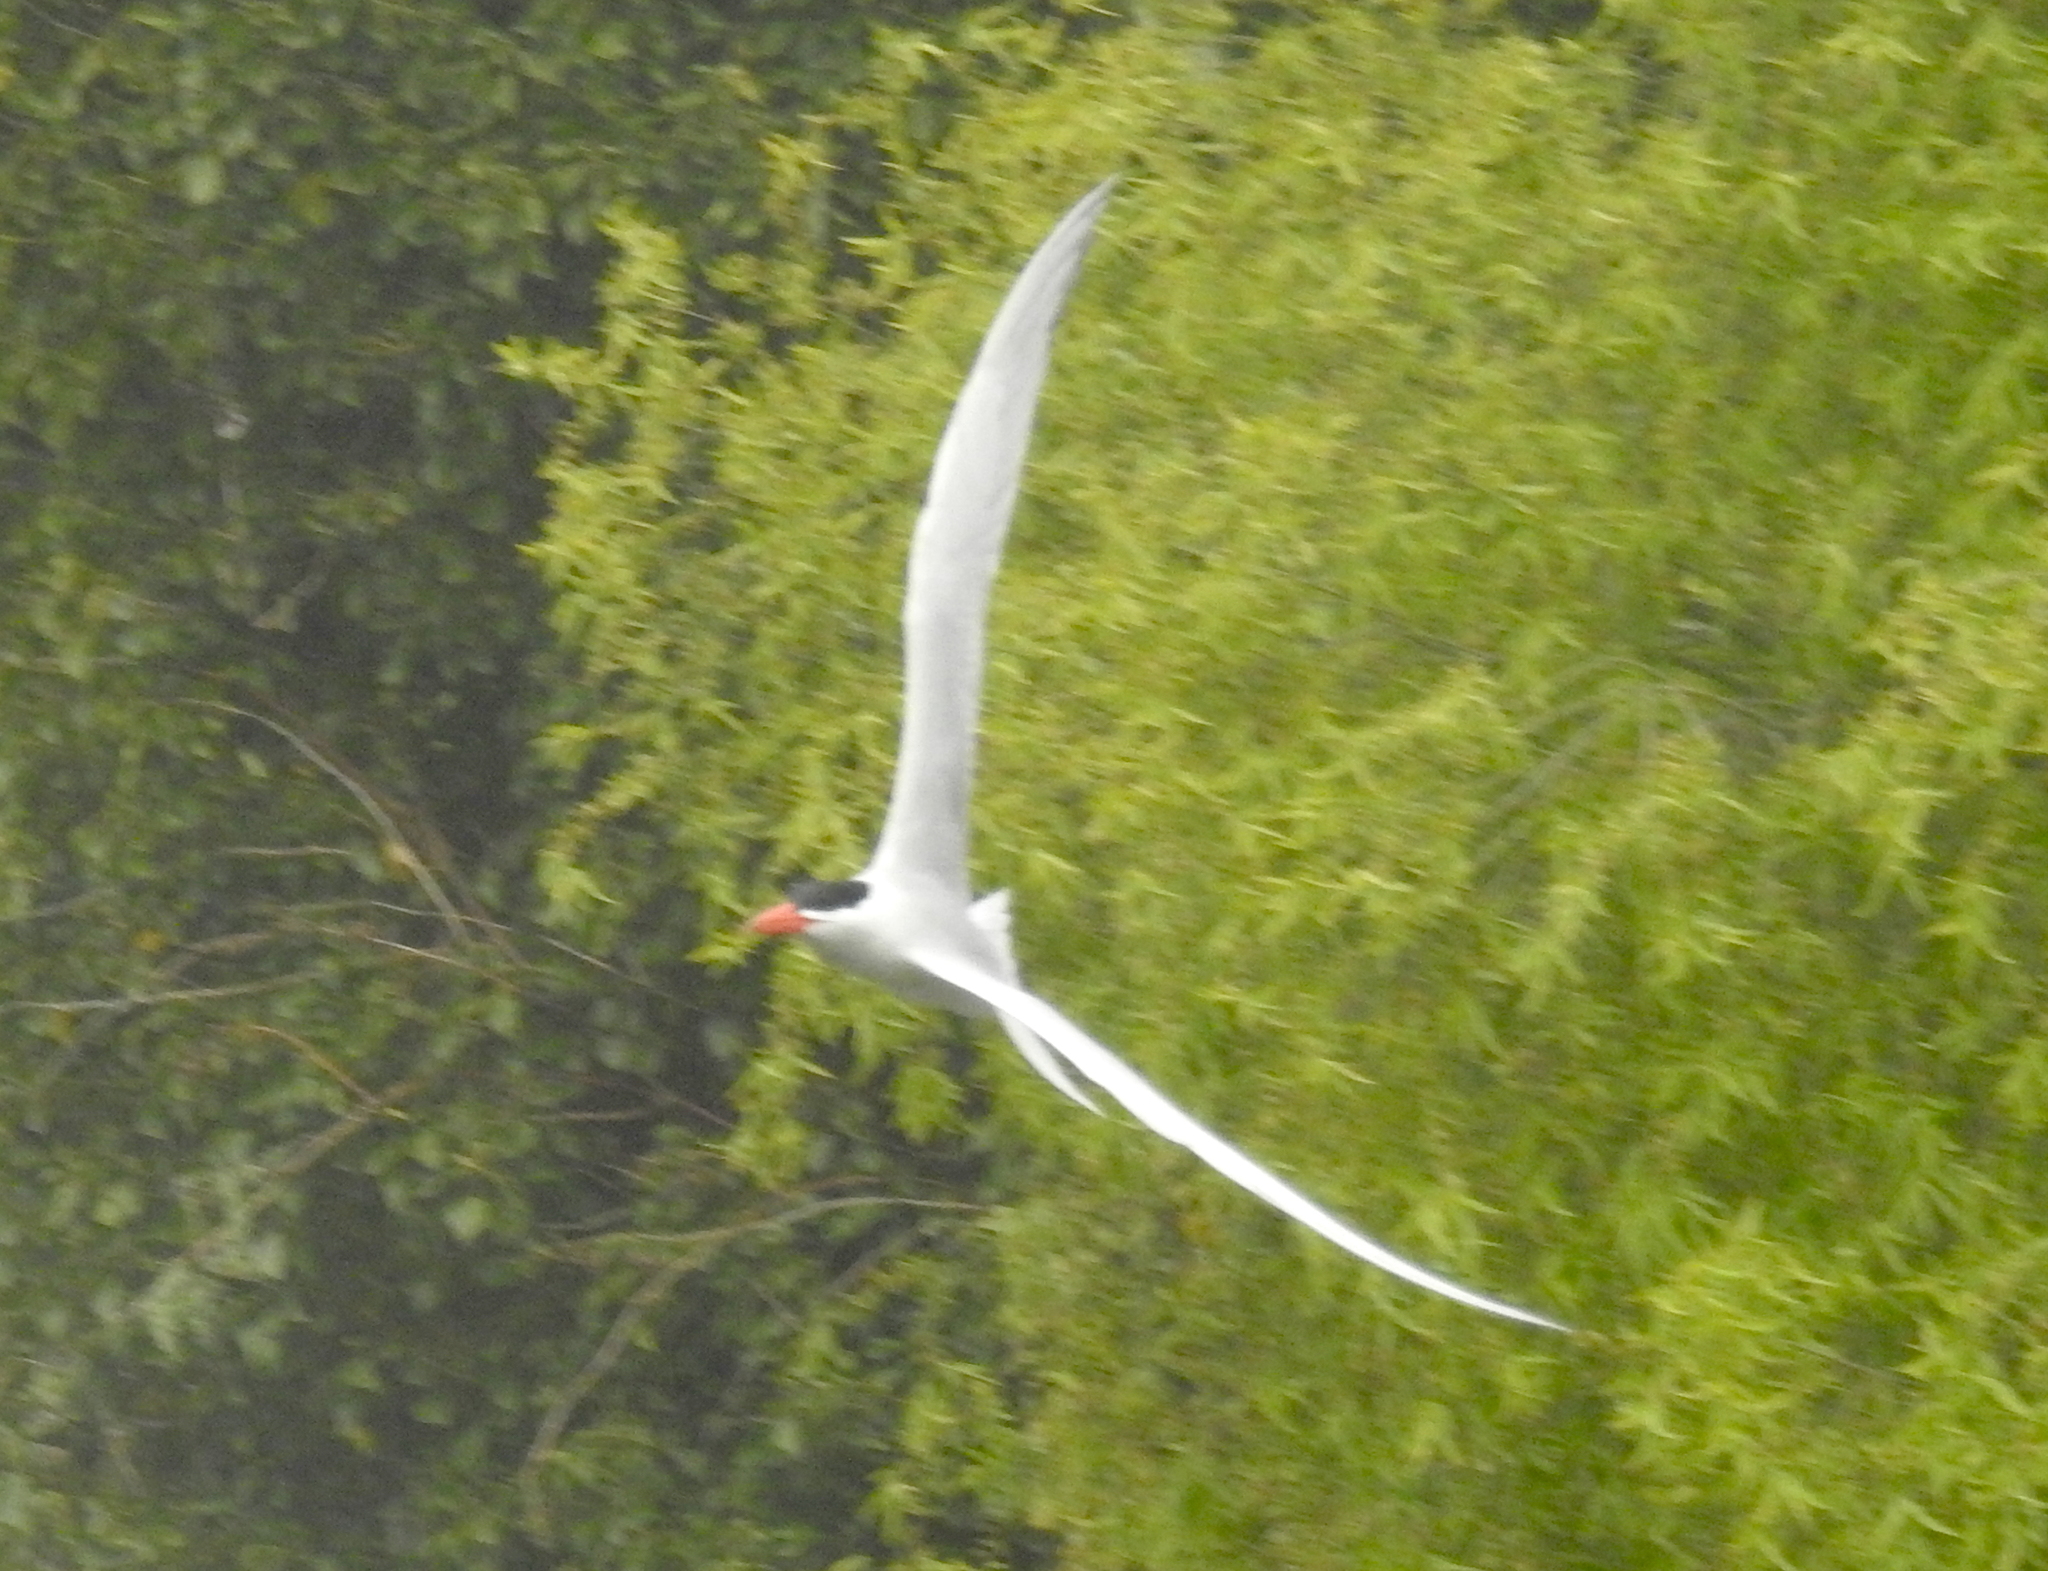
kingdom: Animalia
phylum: Chordata
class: Aves
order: Charadriiformes
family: Laridae
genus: Hydroprogne
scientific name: Hydroprogne caspia
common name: Caspian tern
